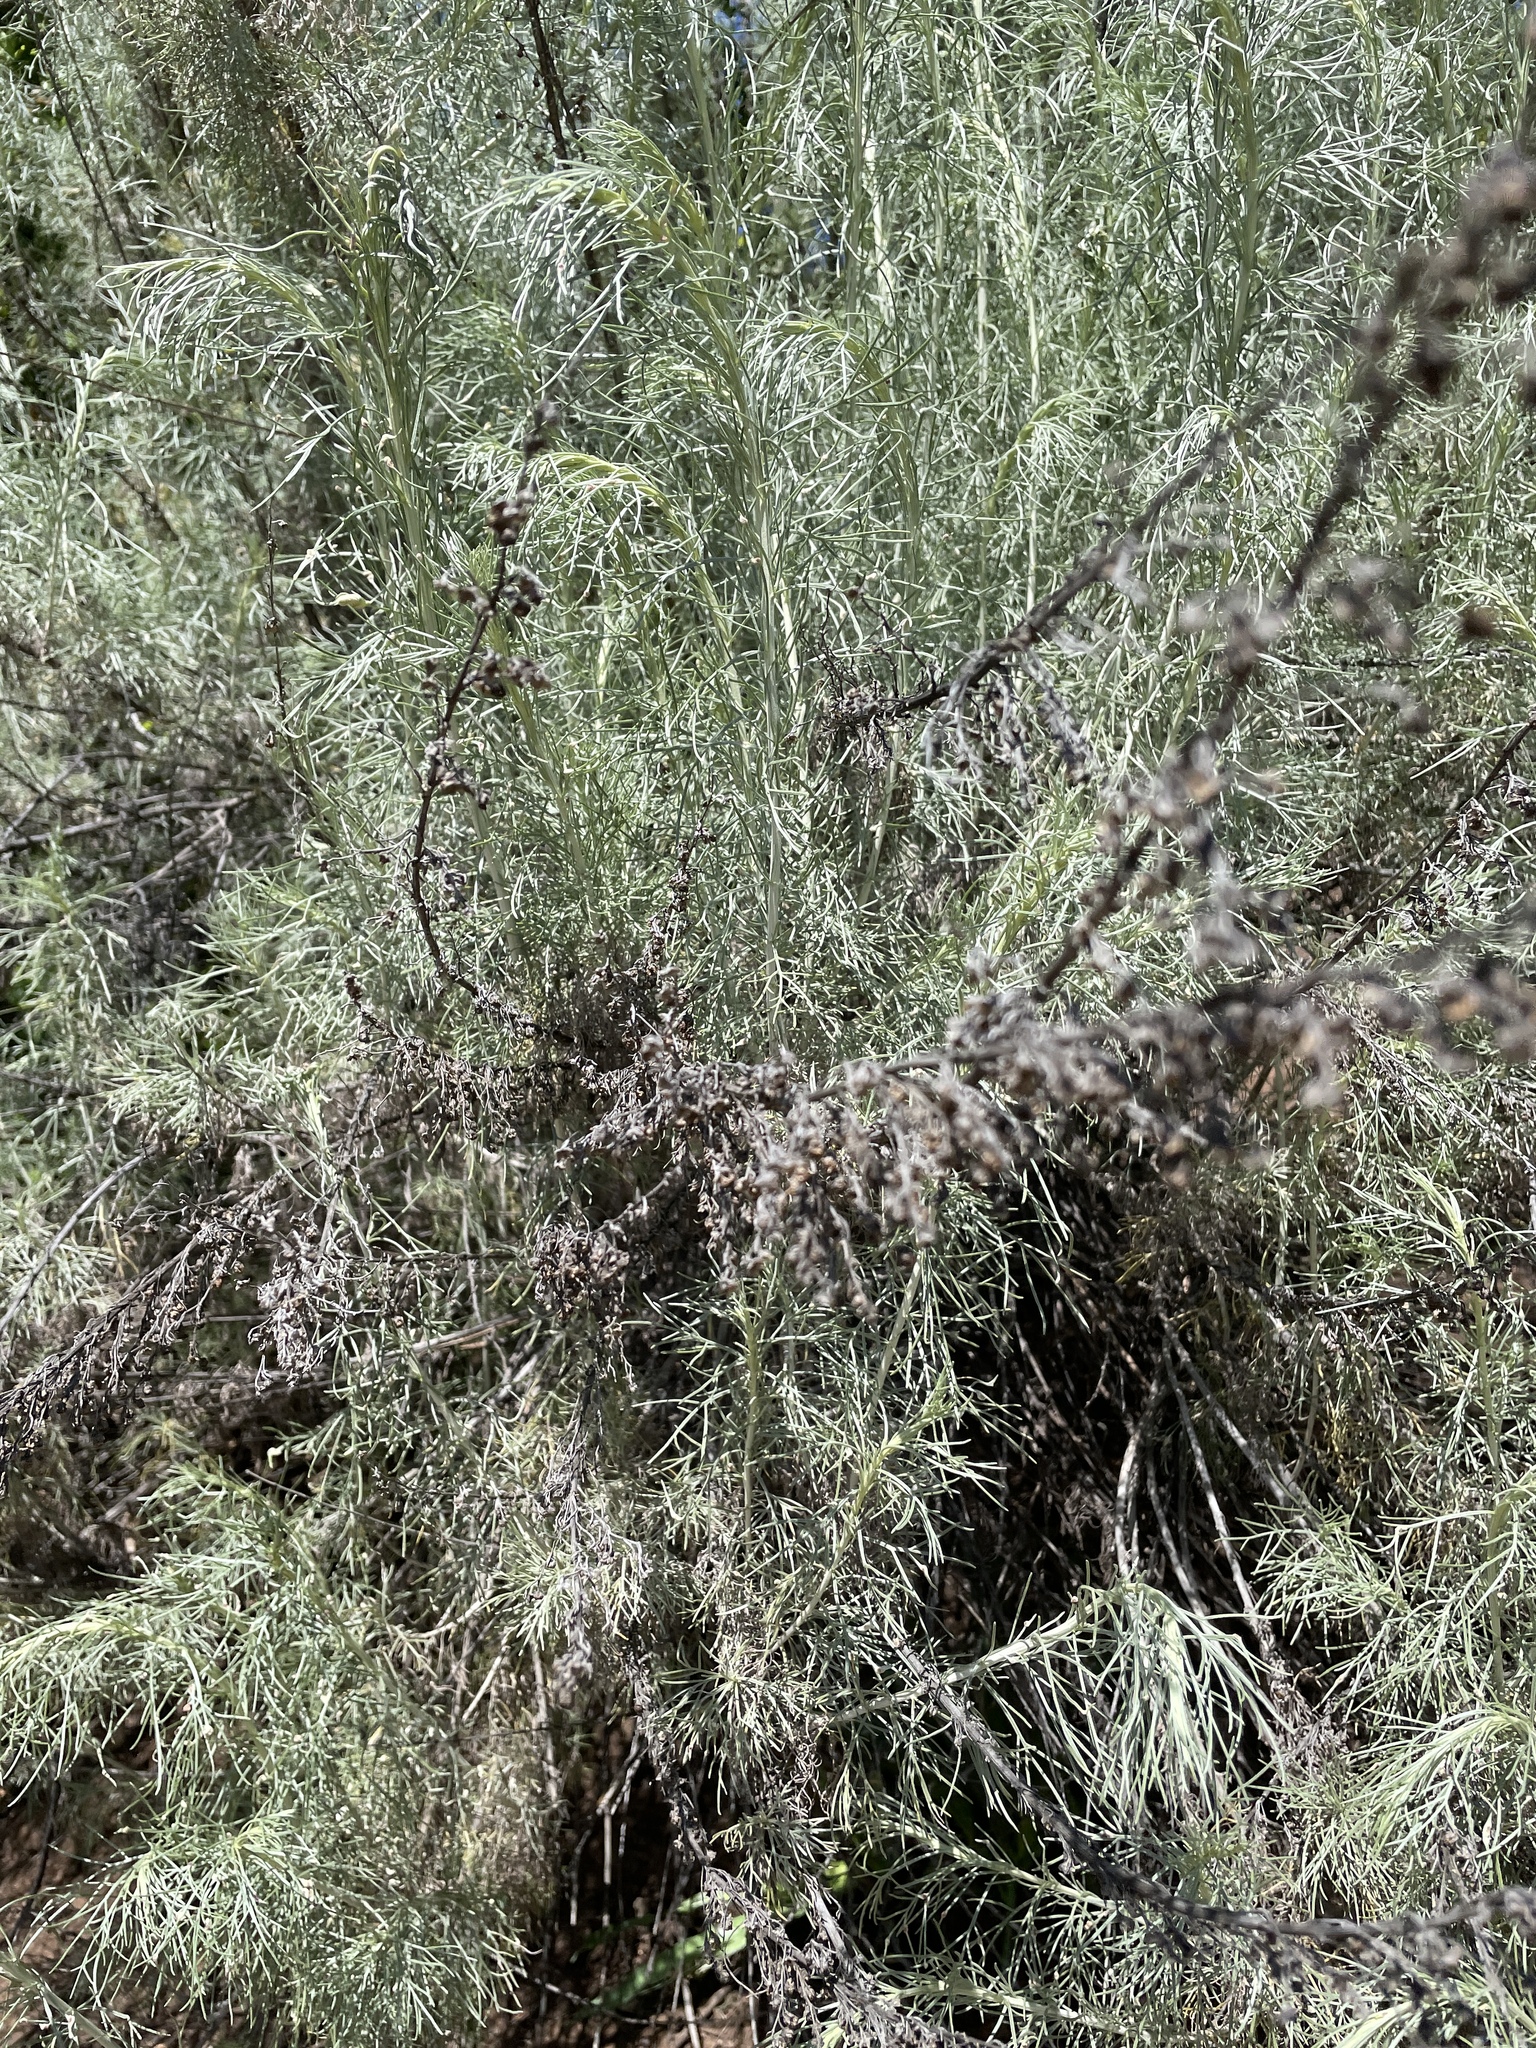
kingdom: Plantae
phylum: Tracheophyta
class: Magnoliopsida
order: Asterales
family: Asteraceae
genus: Artemisia
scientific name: Artemisia californica
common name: California sagebrush
